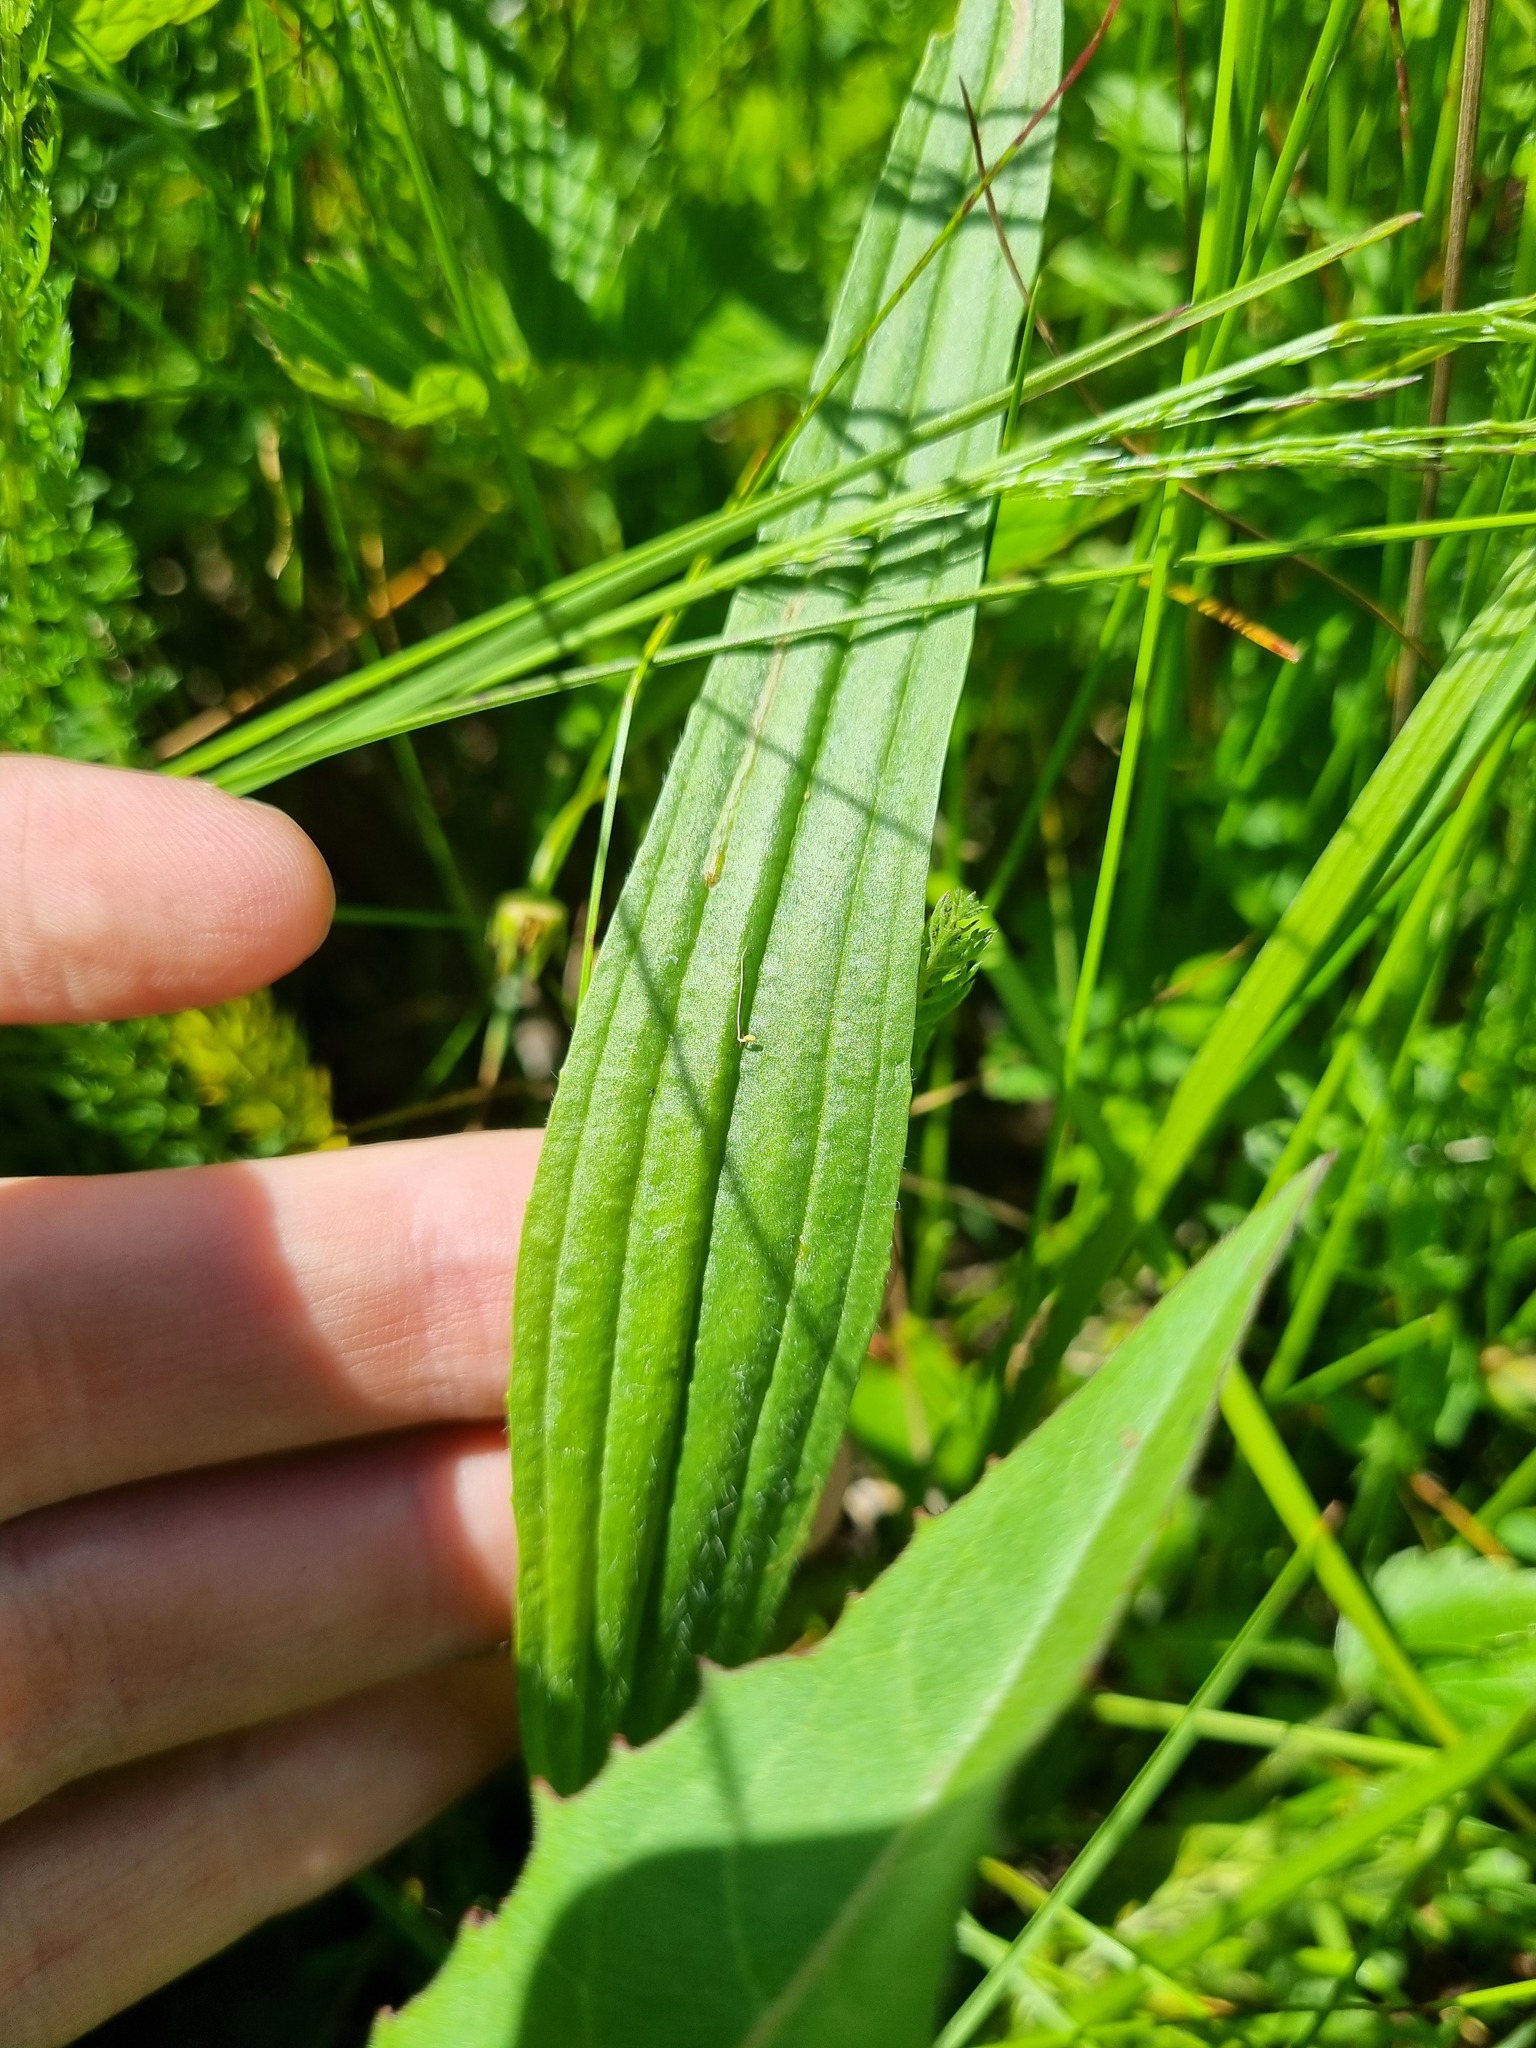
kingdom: Plantae
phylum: Tracheophyta
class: Magnoliopsida
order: Lamiales
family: Plantaginaceae
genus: Plantago
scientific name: Plantago lanceolata
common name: Ribwort plantain
